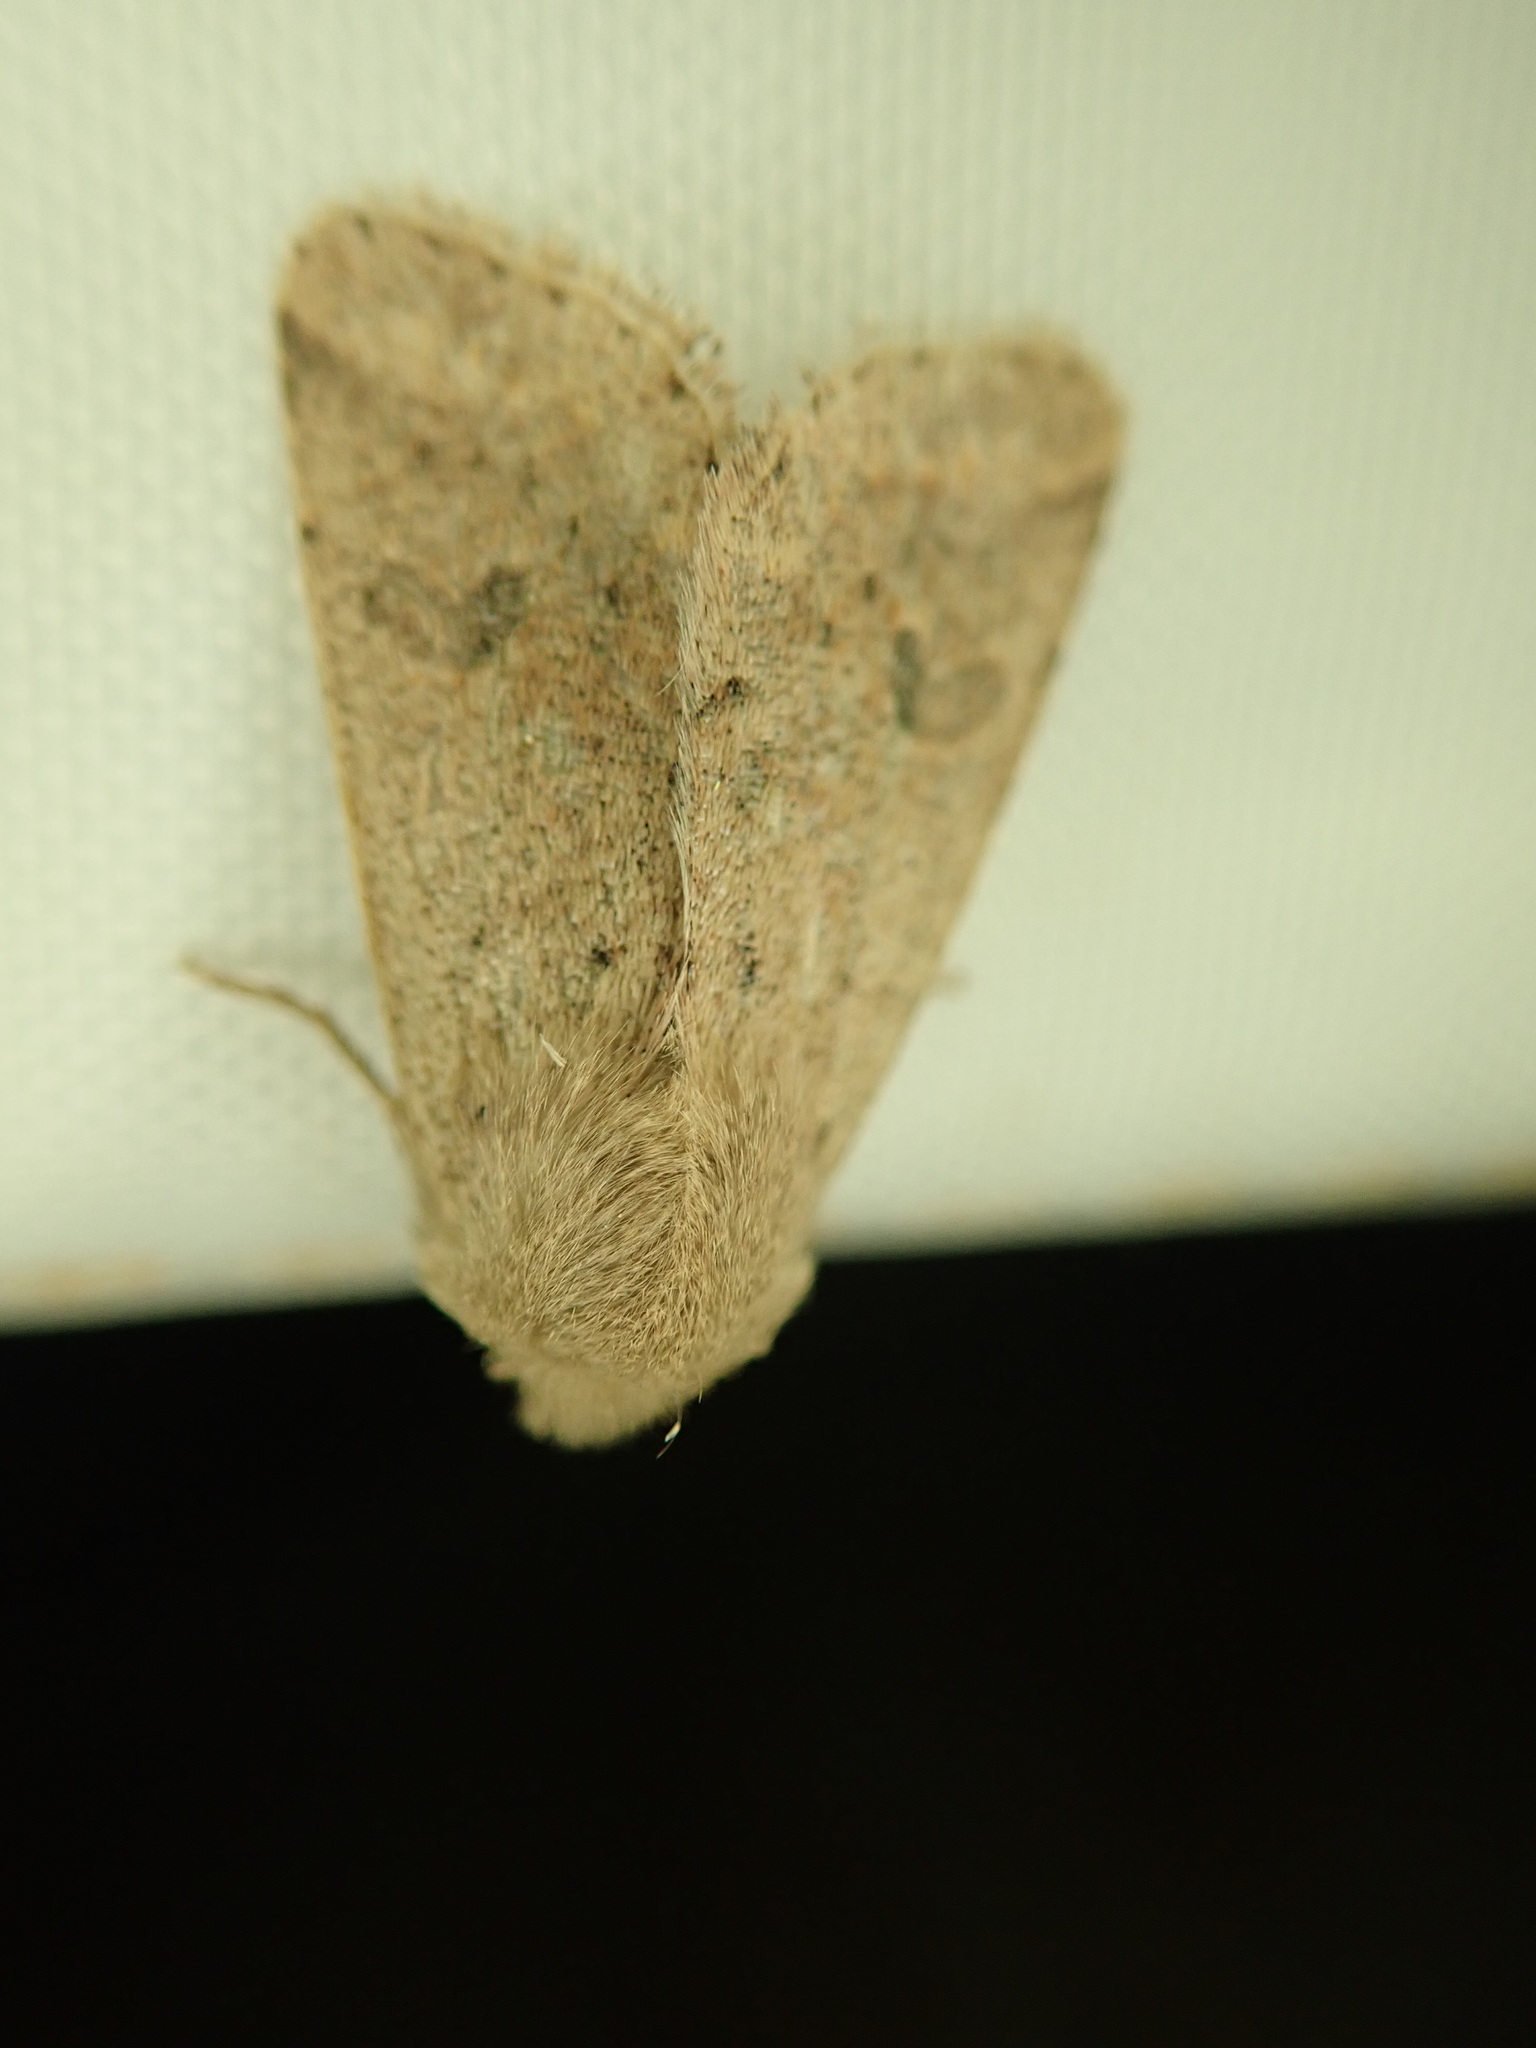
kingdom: Animalia
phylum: Arthropoda
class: Insecta
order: Lepidoptera
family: Noctuidae
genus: Orthosia
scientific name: Orthosia cruda
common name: Small quaker
